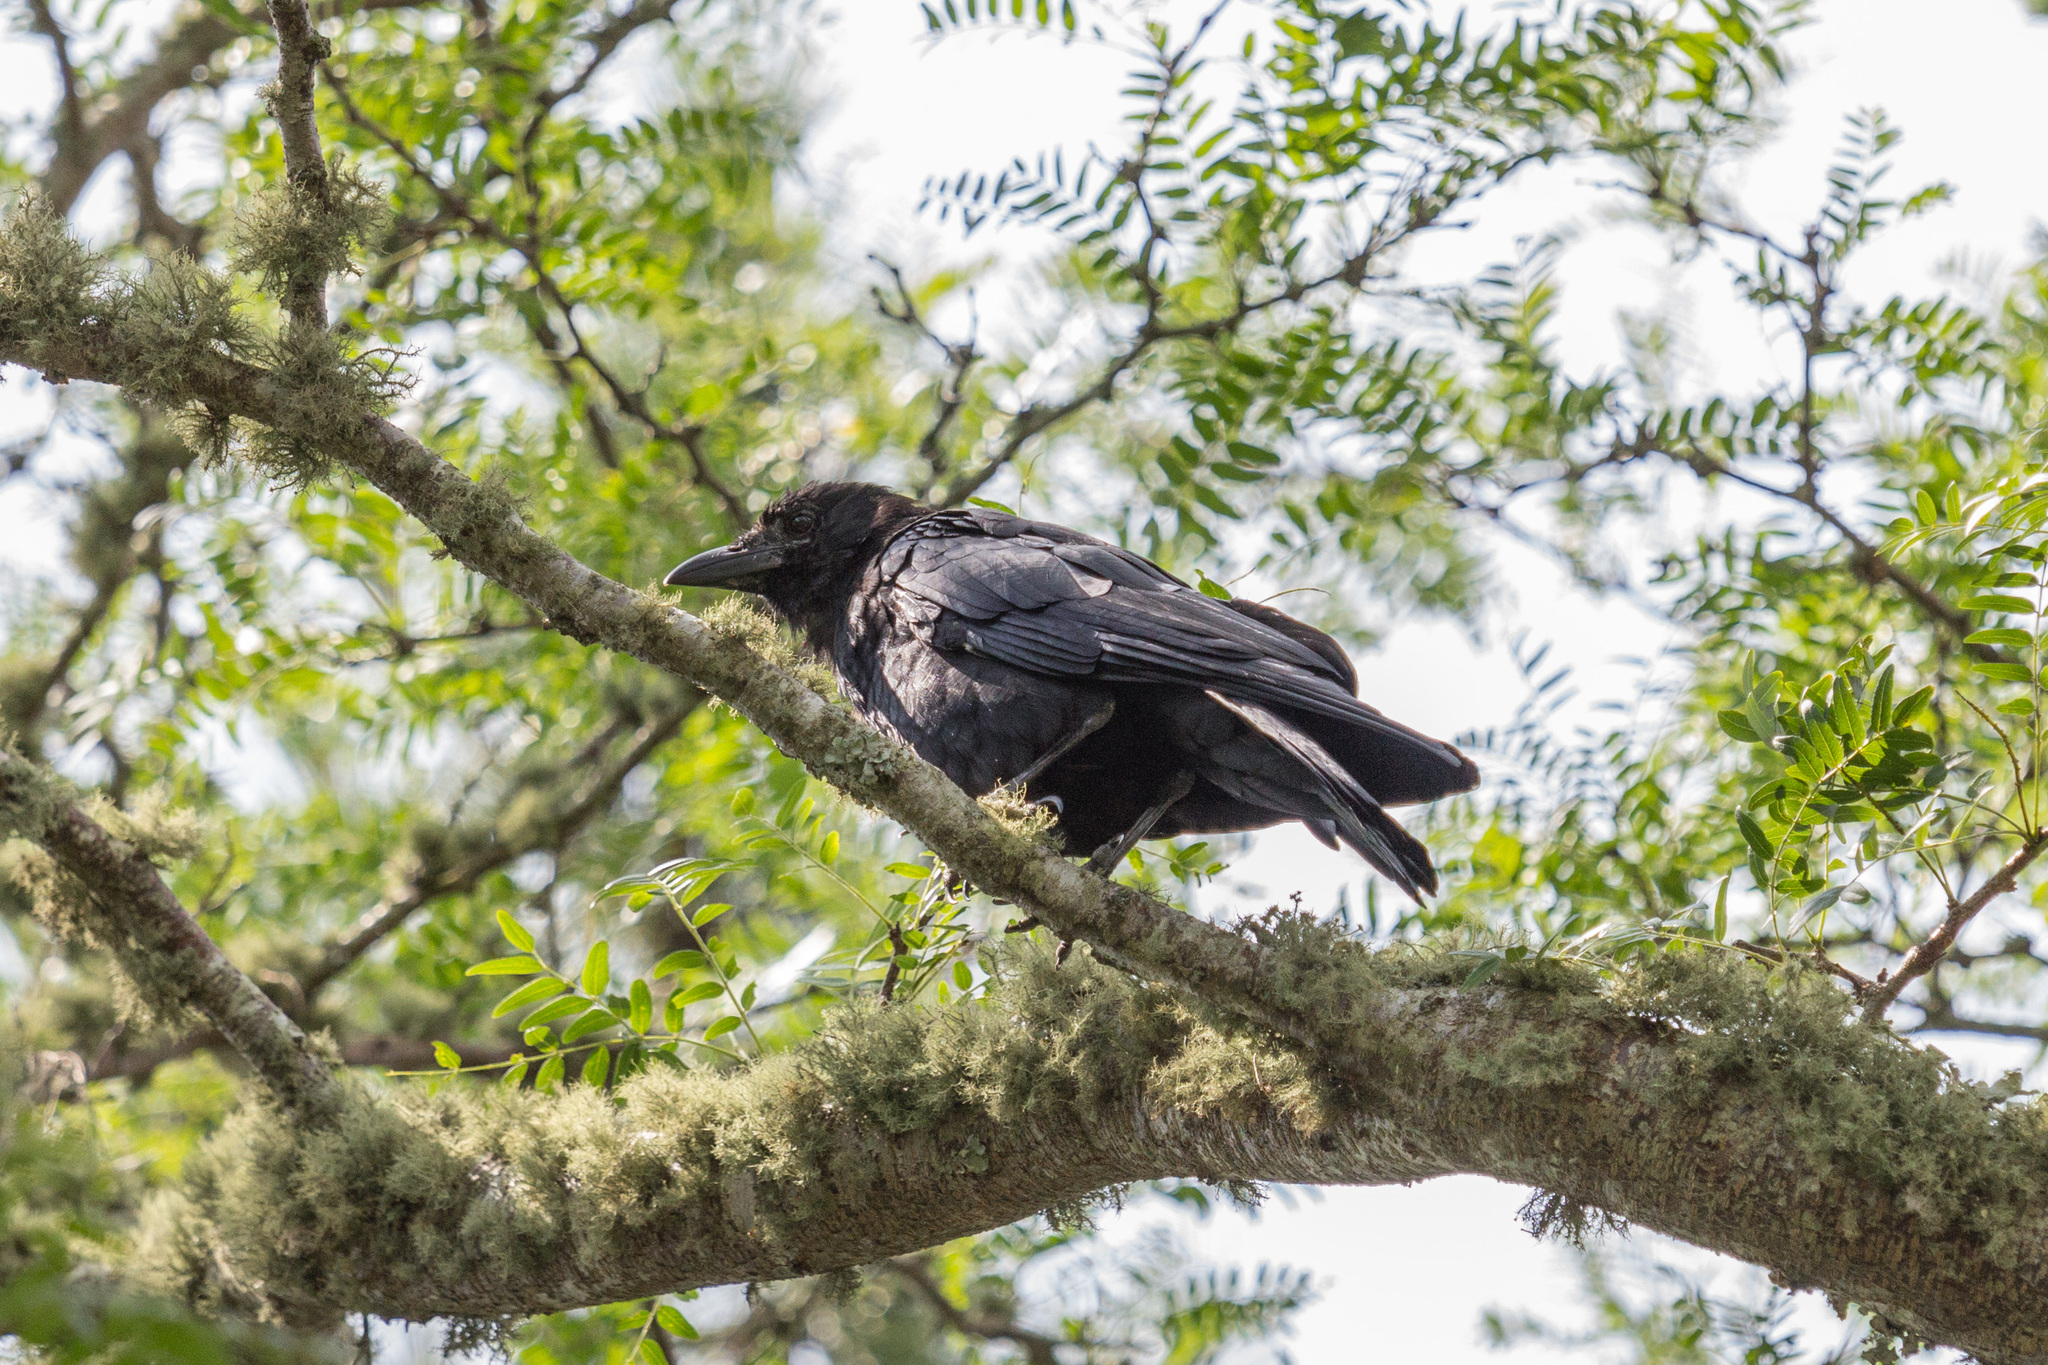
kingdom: Animalia
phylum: Chordata
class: Aves
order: Passeriformes
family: Corvidae
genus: Corvus
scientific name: Corvus brachyrhynchos
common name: American crow
